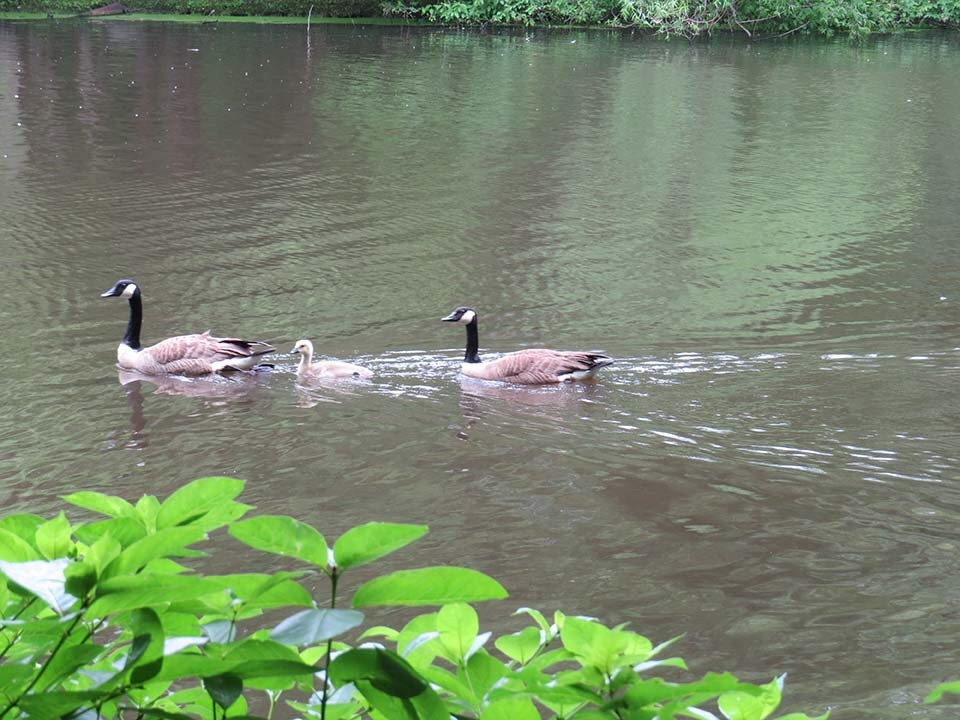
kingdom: Animalia
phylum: Chordata
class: Aves
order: Anseriformes
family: Anatidae
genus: Branta
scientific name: Branta canadensis
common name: Canada goose
